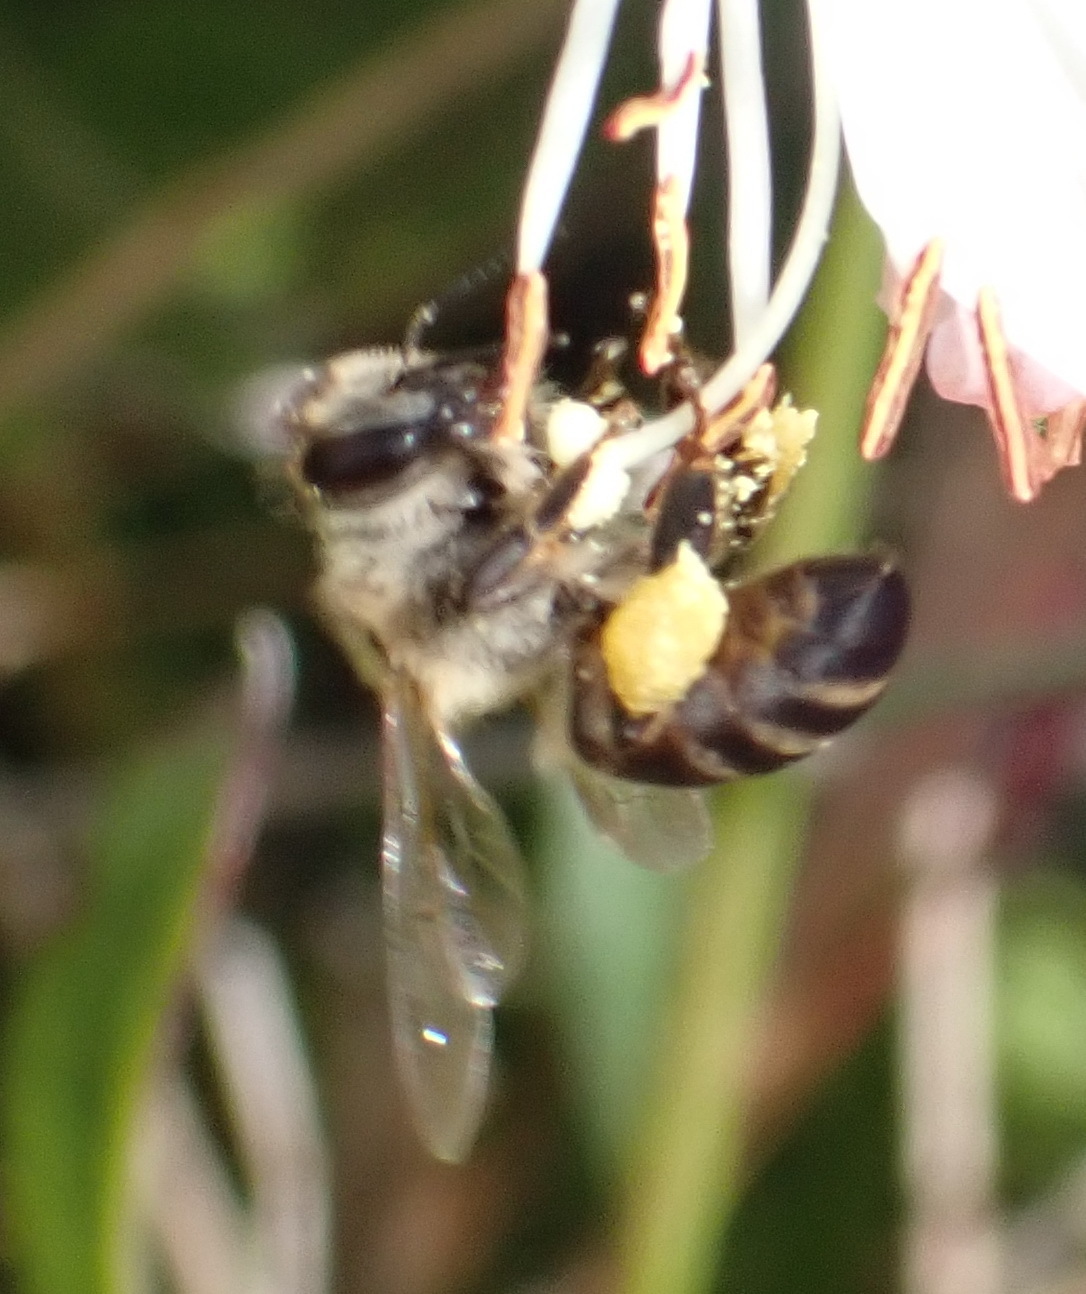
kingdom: Animalia
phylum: Arthropoda
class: Insecta
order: Hymenoptera
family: Apidae
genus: Apis
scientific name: Apis mellifera
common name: Honey bee
